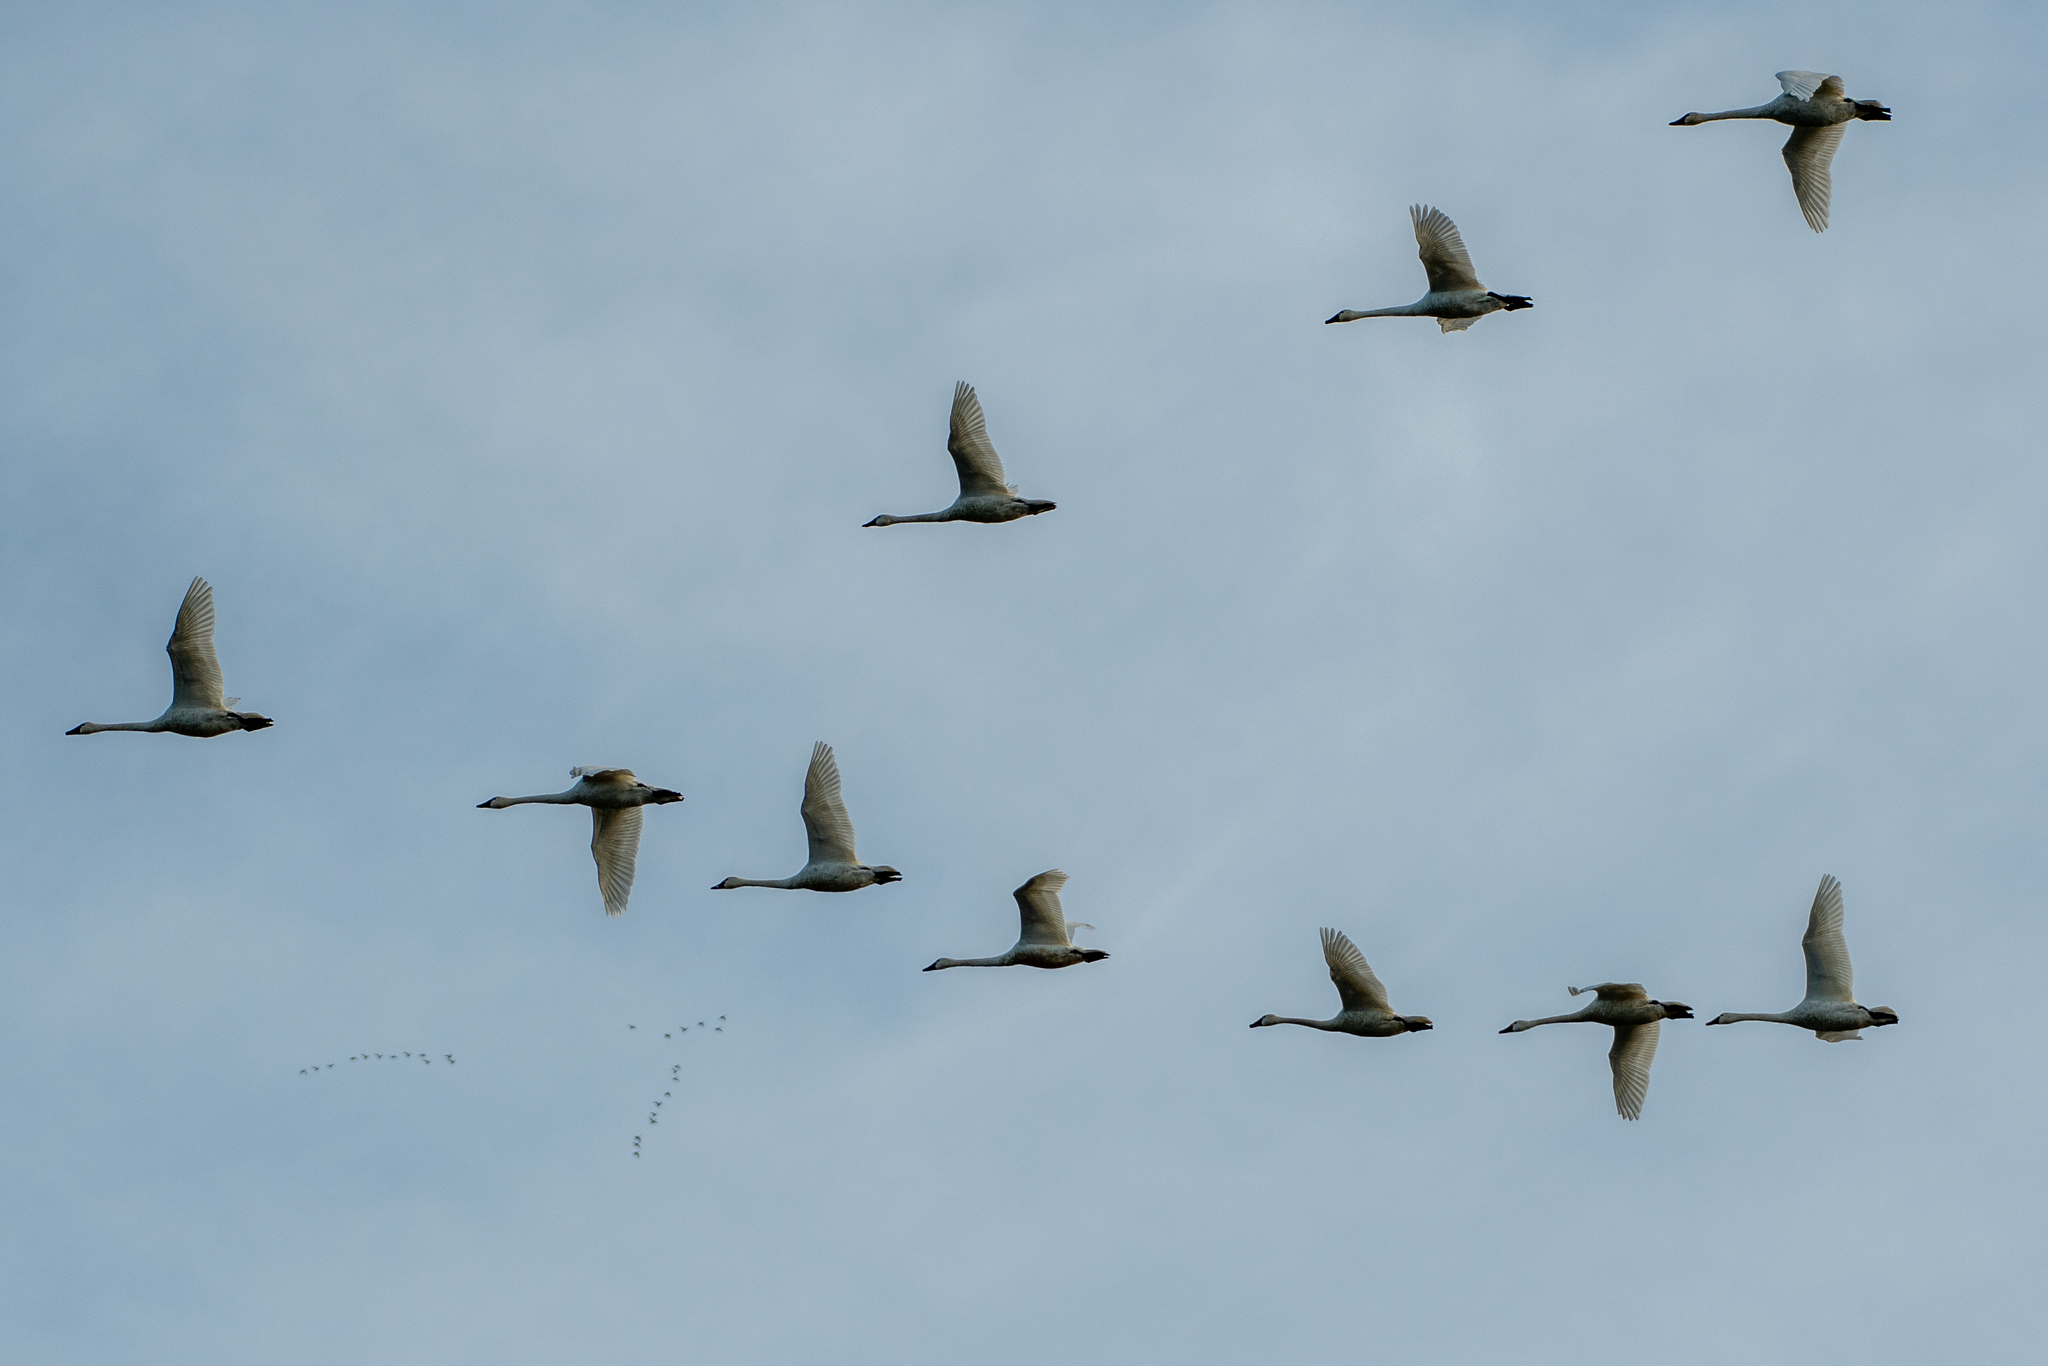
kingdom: Animalia
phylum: Chordata
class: Aves
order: Anseriformes
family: Anatidae
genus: Cygnus
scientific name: Cygnus columbianus
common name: Tundra swan
